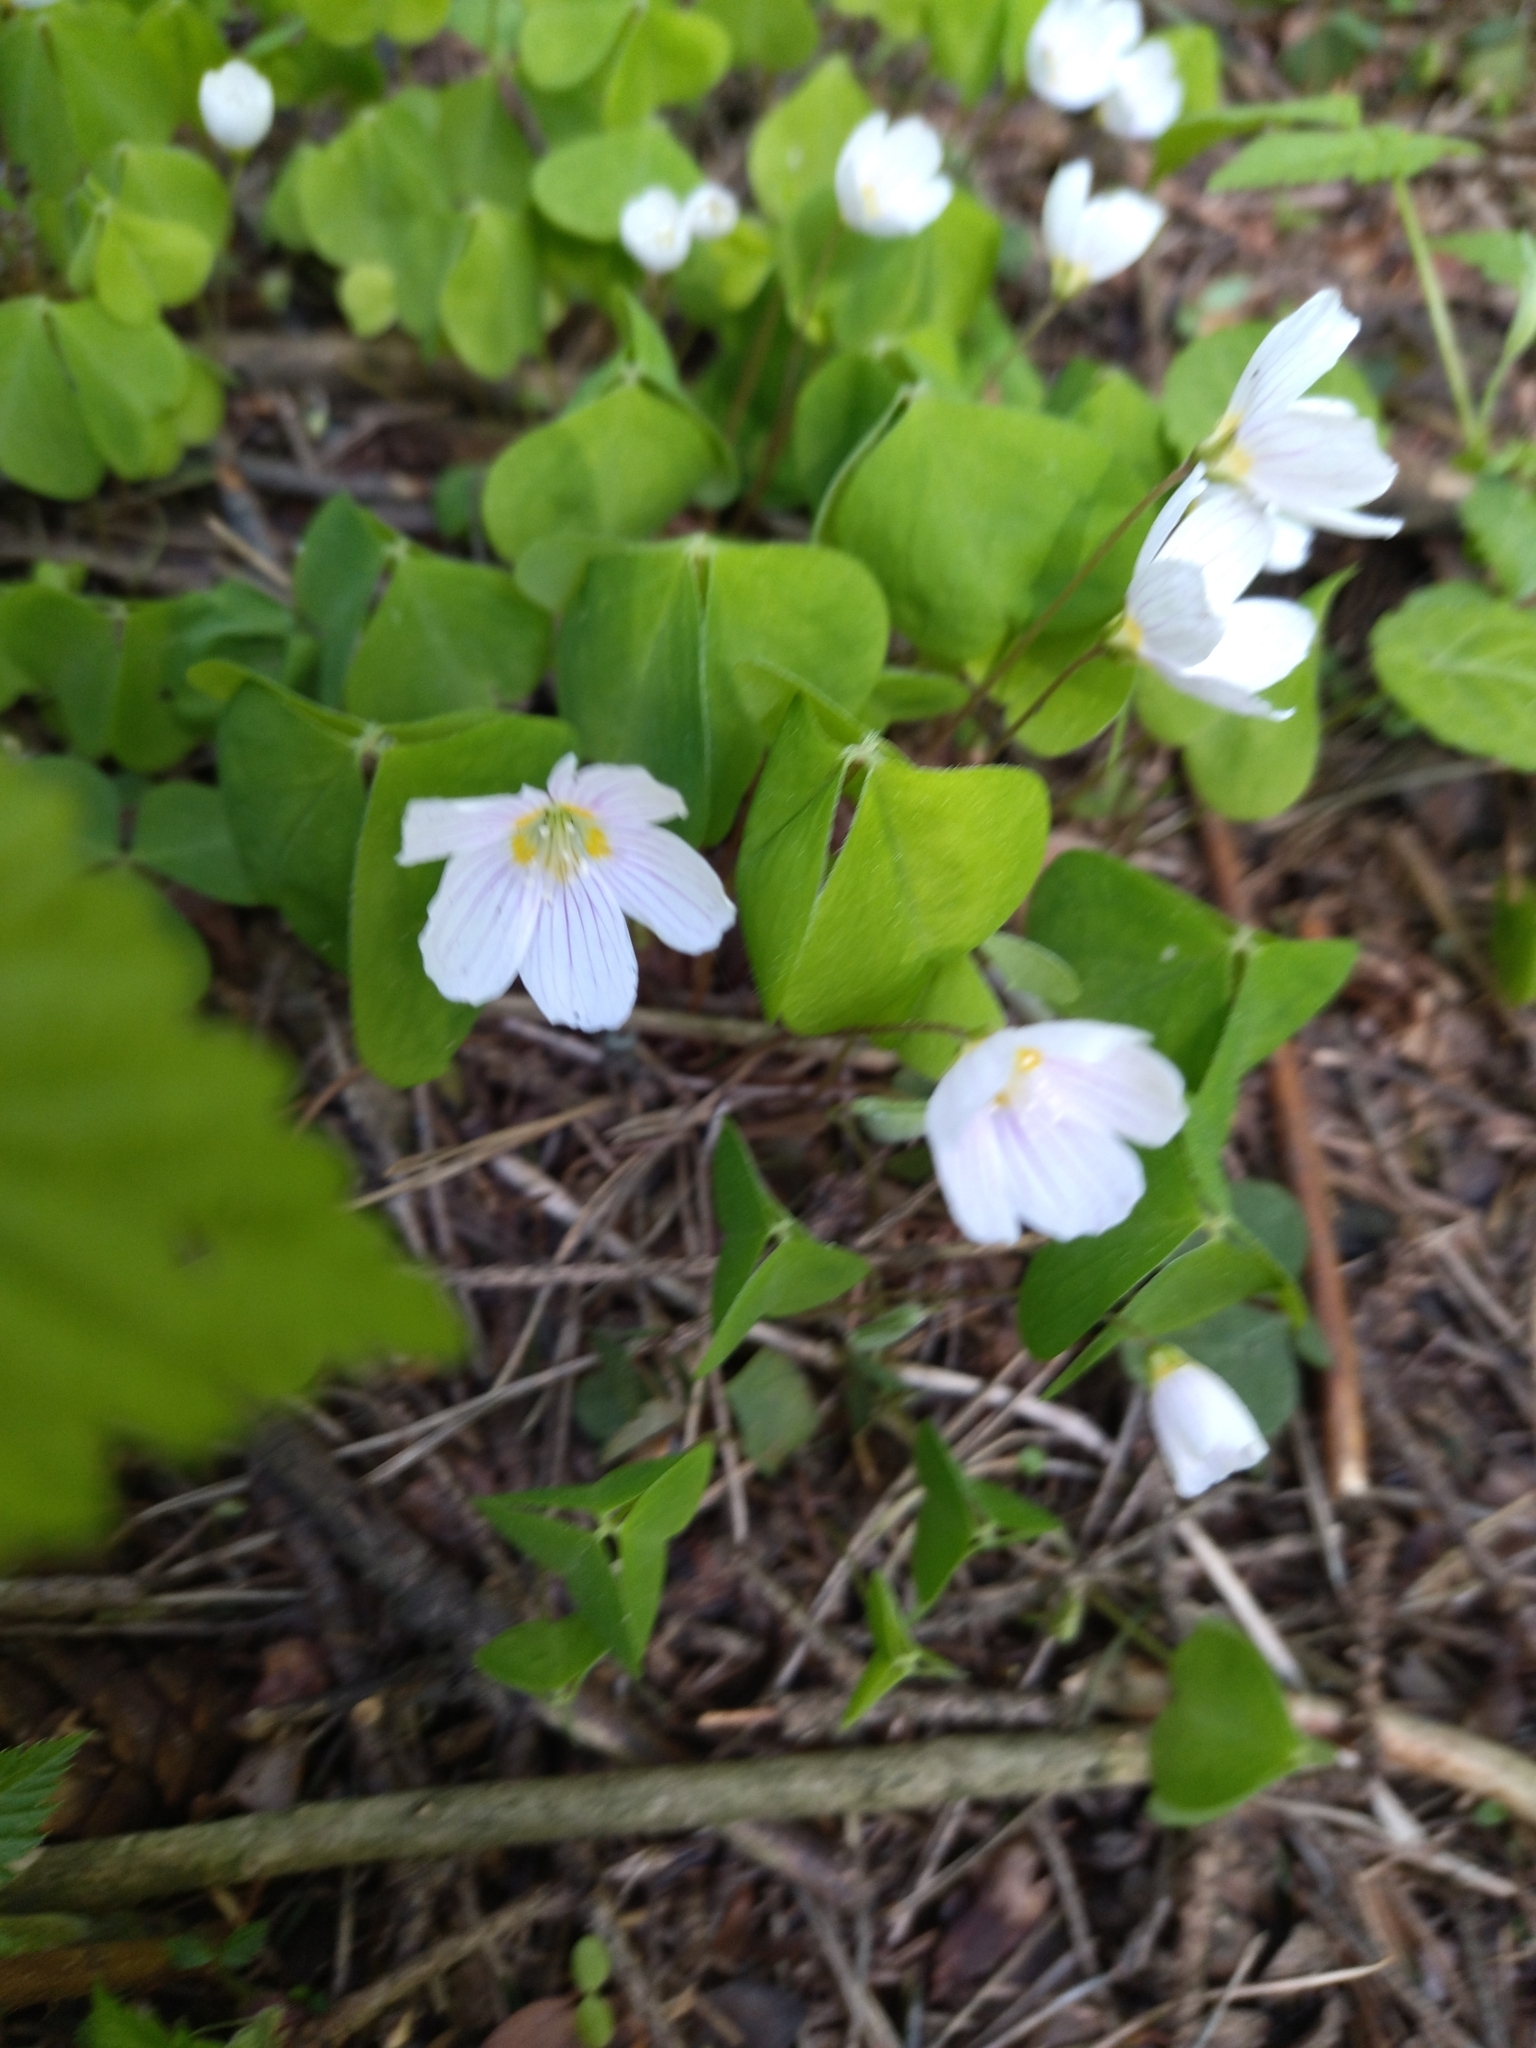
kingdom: Plantae
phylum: Tracheophyta
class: Magnoliopsida
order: Oxalidales
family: Oxalidaceae
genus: Oxalis
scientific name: Oxalis acetosella
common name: Wood-sorrel
